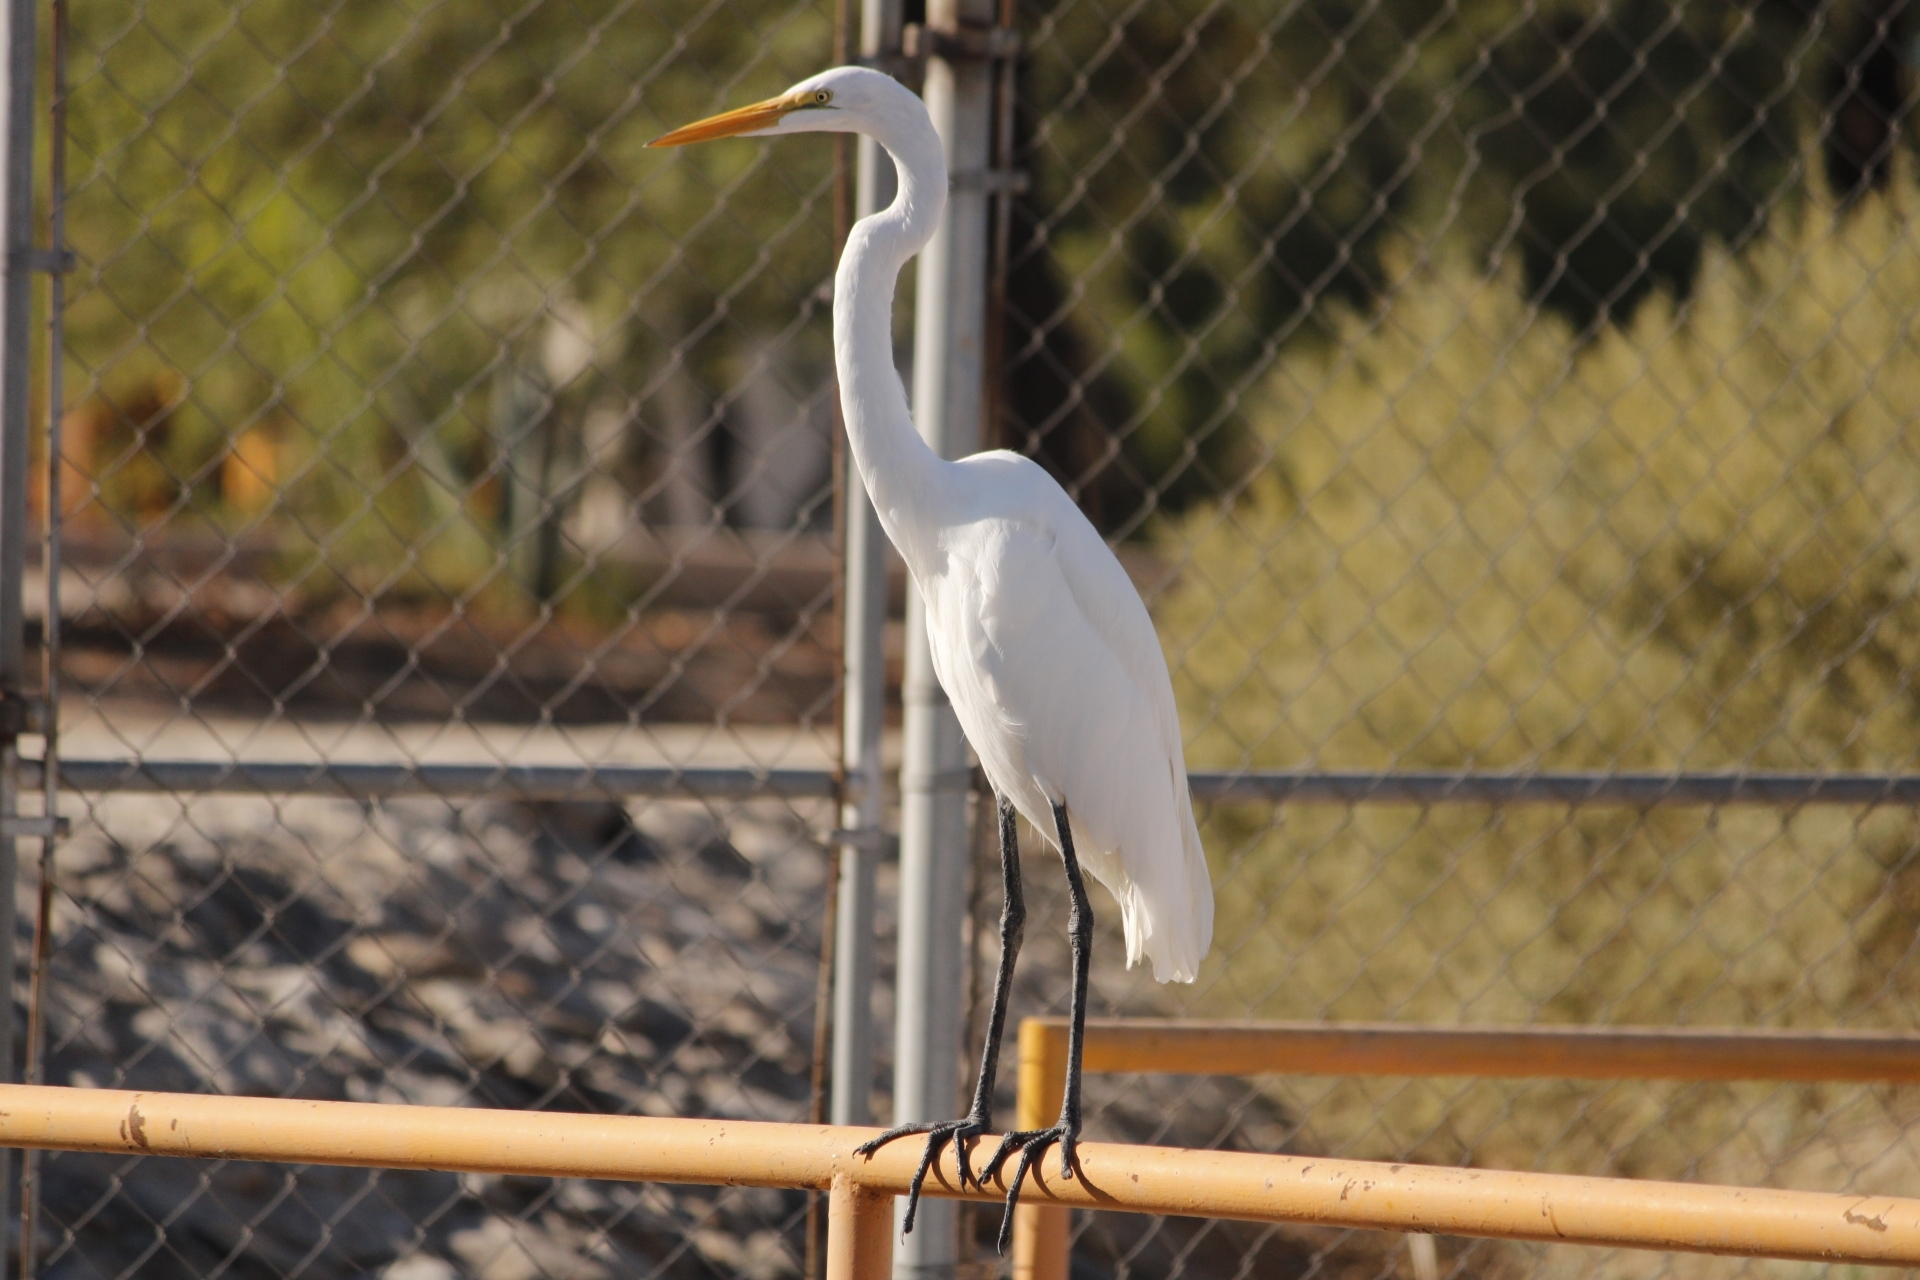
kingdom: Animalia
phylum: Chordata
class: Aves
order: Pelecaniformes
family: Ardeidae
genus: Ardea
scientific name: Ardea alba
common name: Great egret
